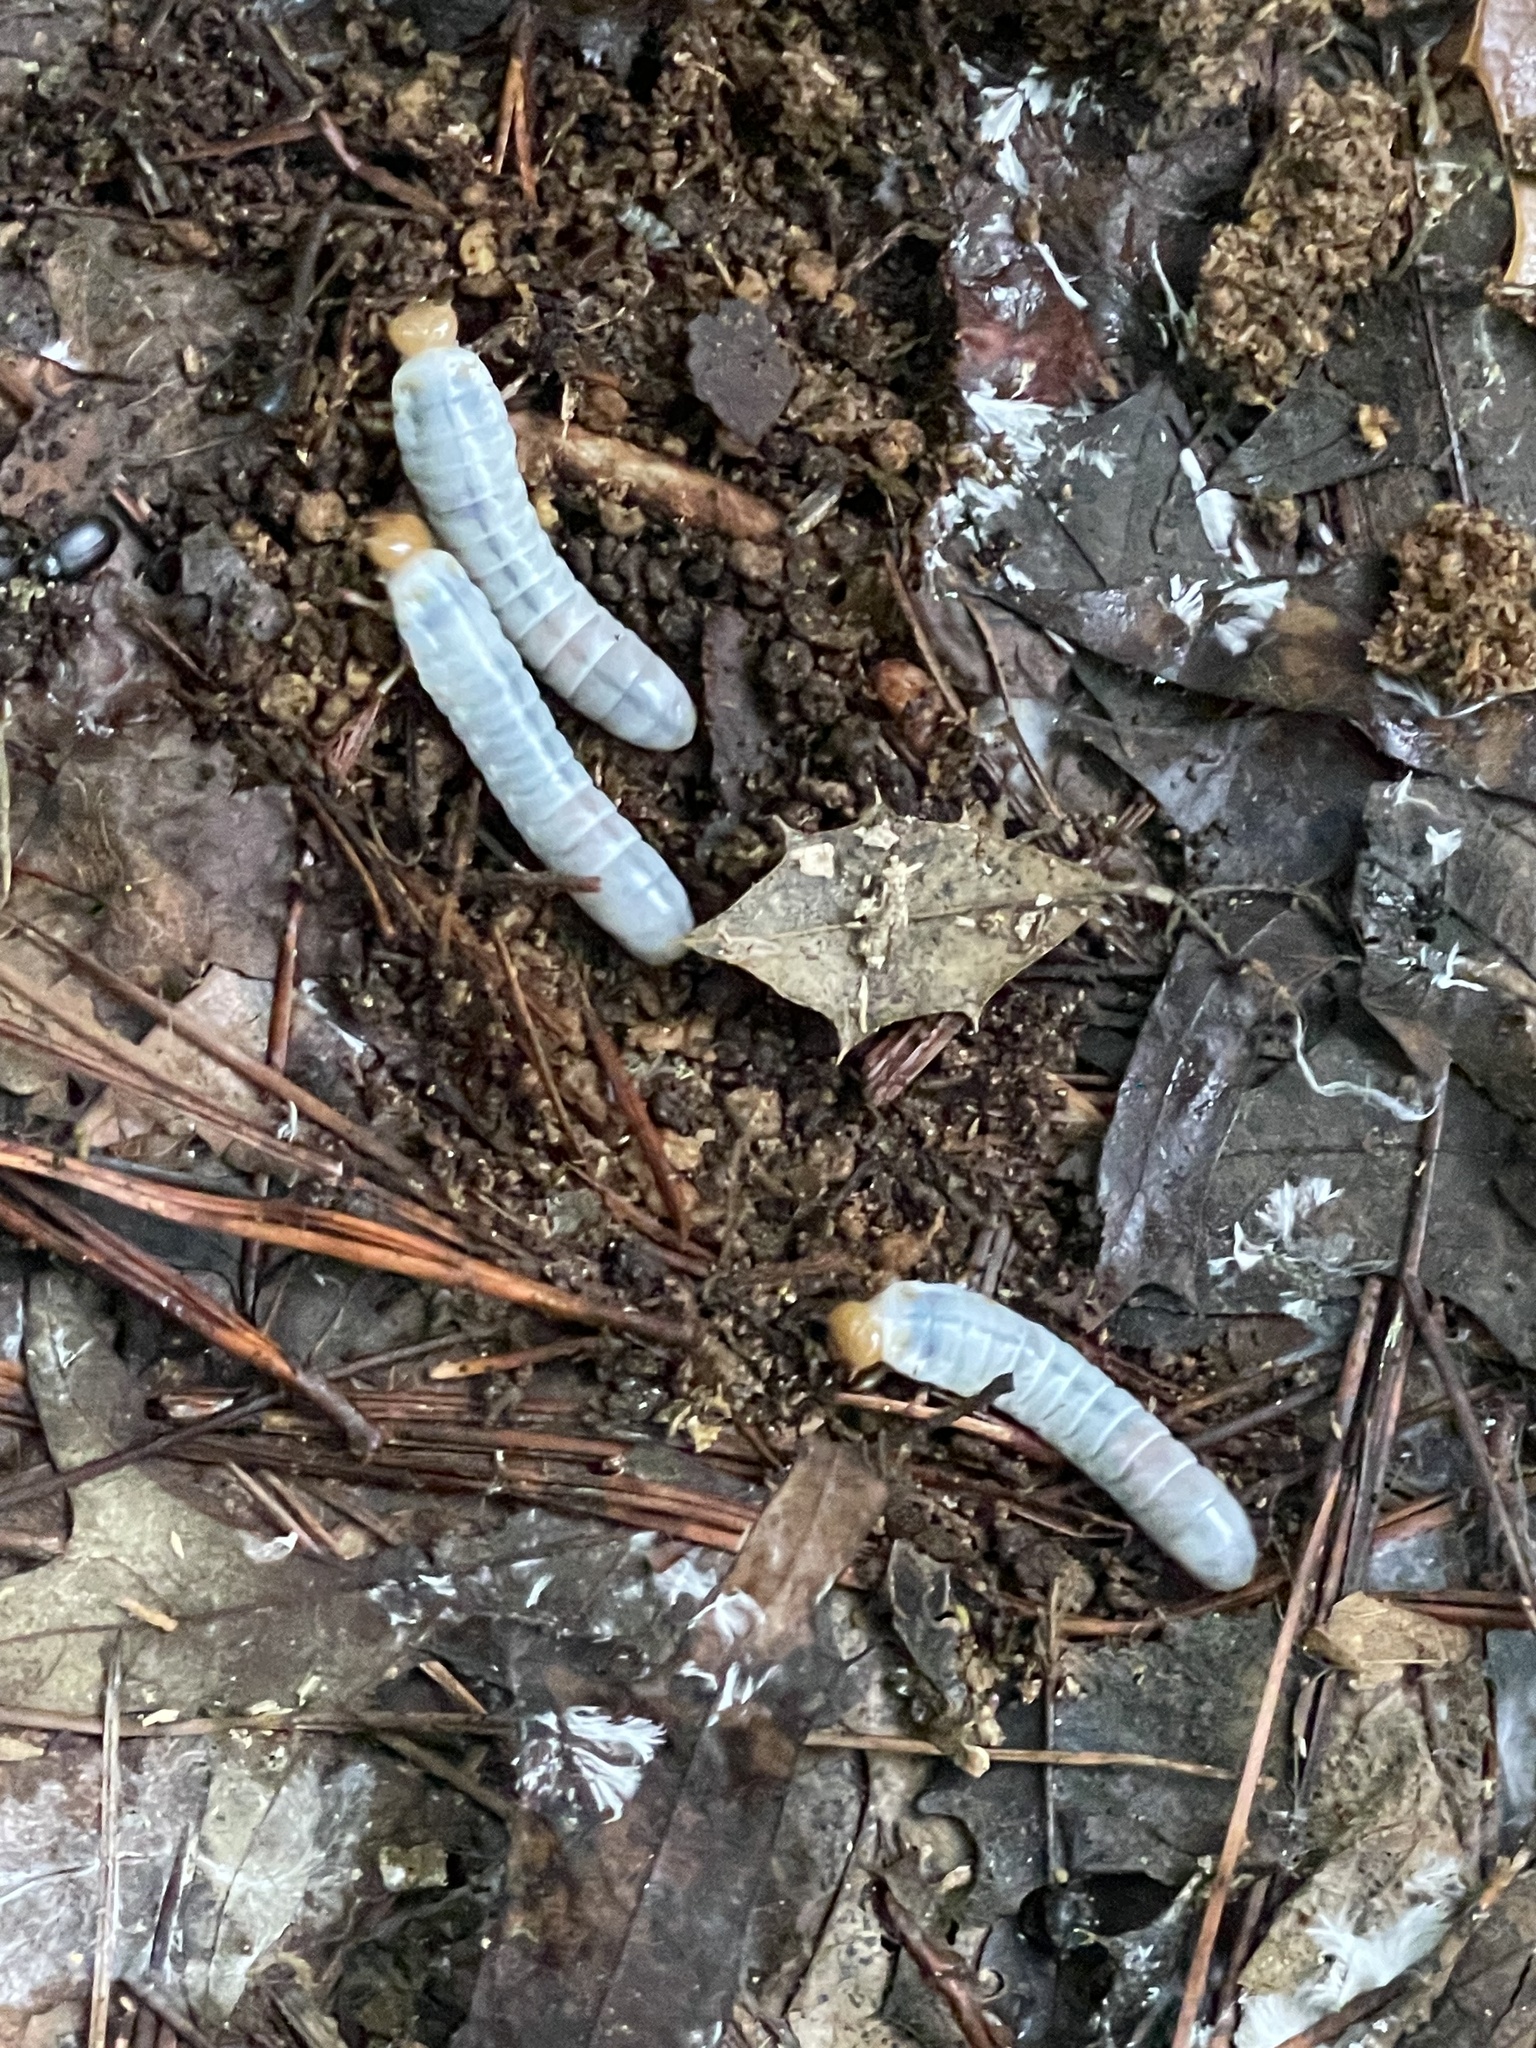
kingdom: Animalia
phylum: Arthropoda
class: Insecta
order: Coleoptera
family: Passalidae
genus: Odontotaenius
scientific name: Odontotaenius disjunctus
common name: Patent leather beetle
